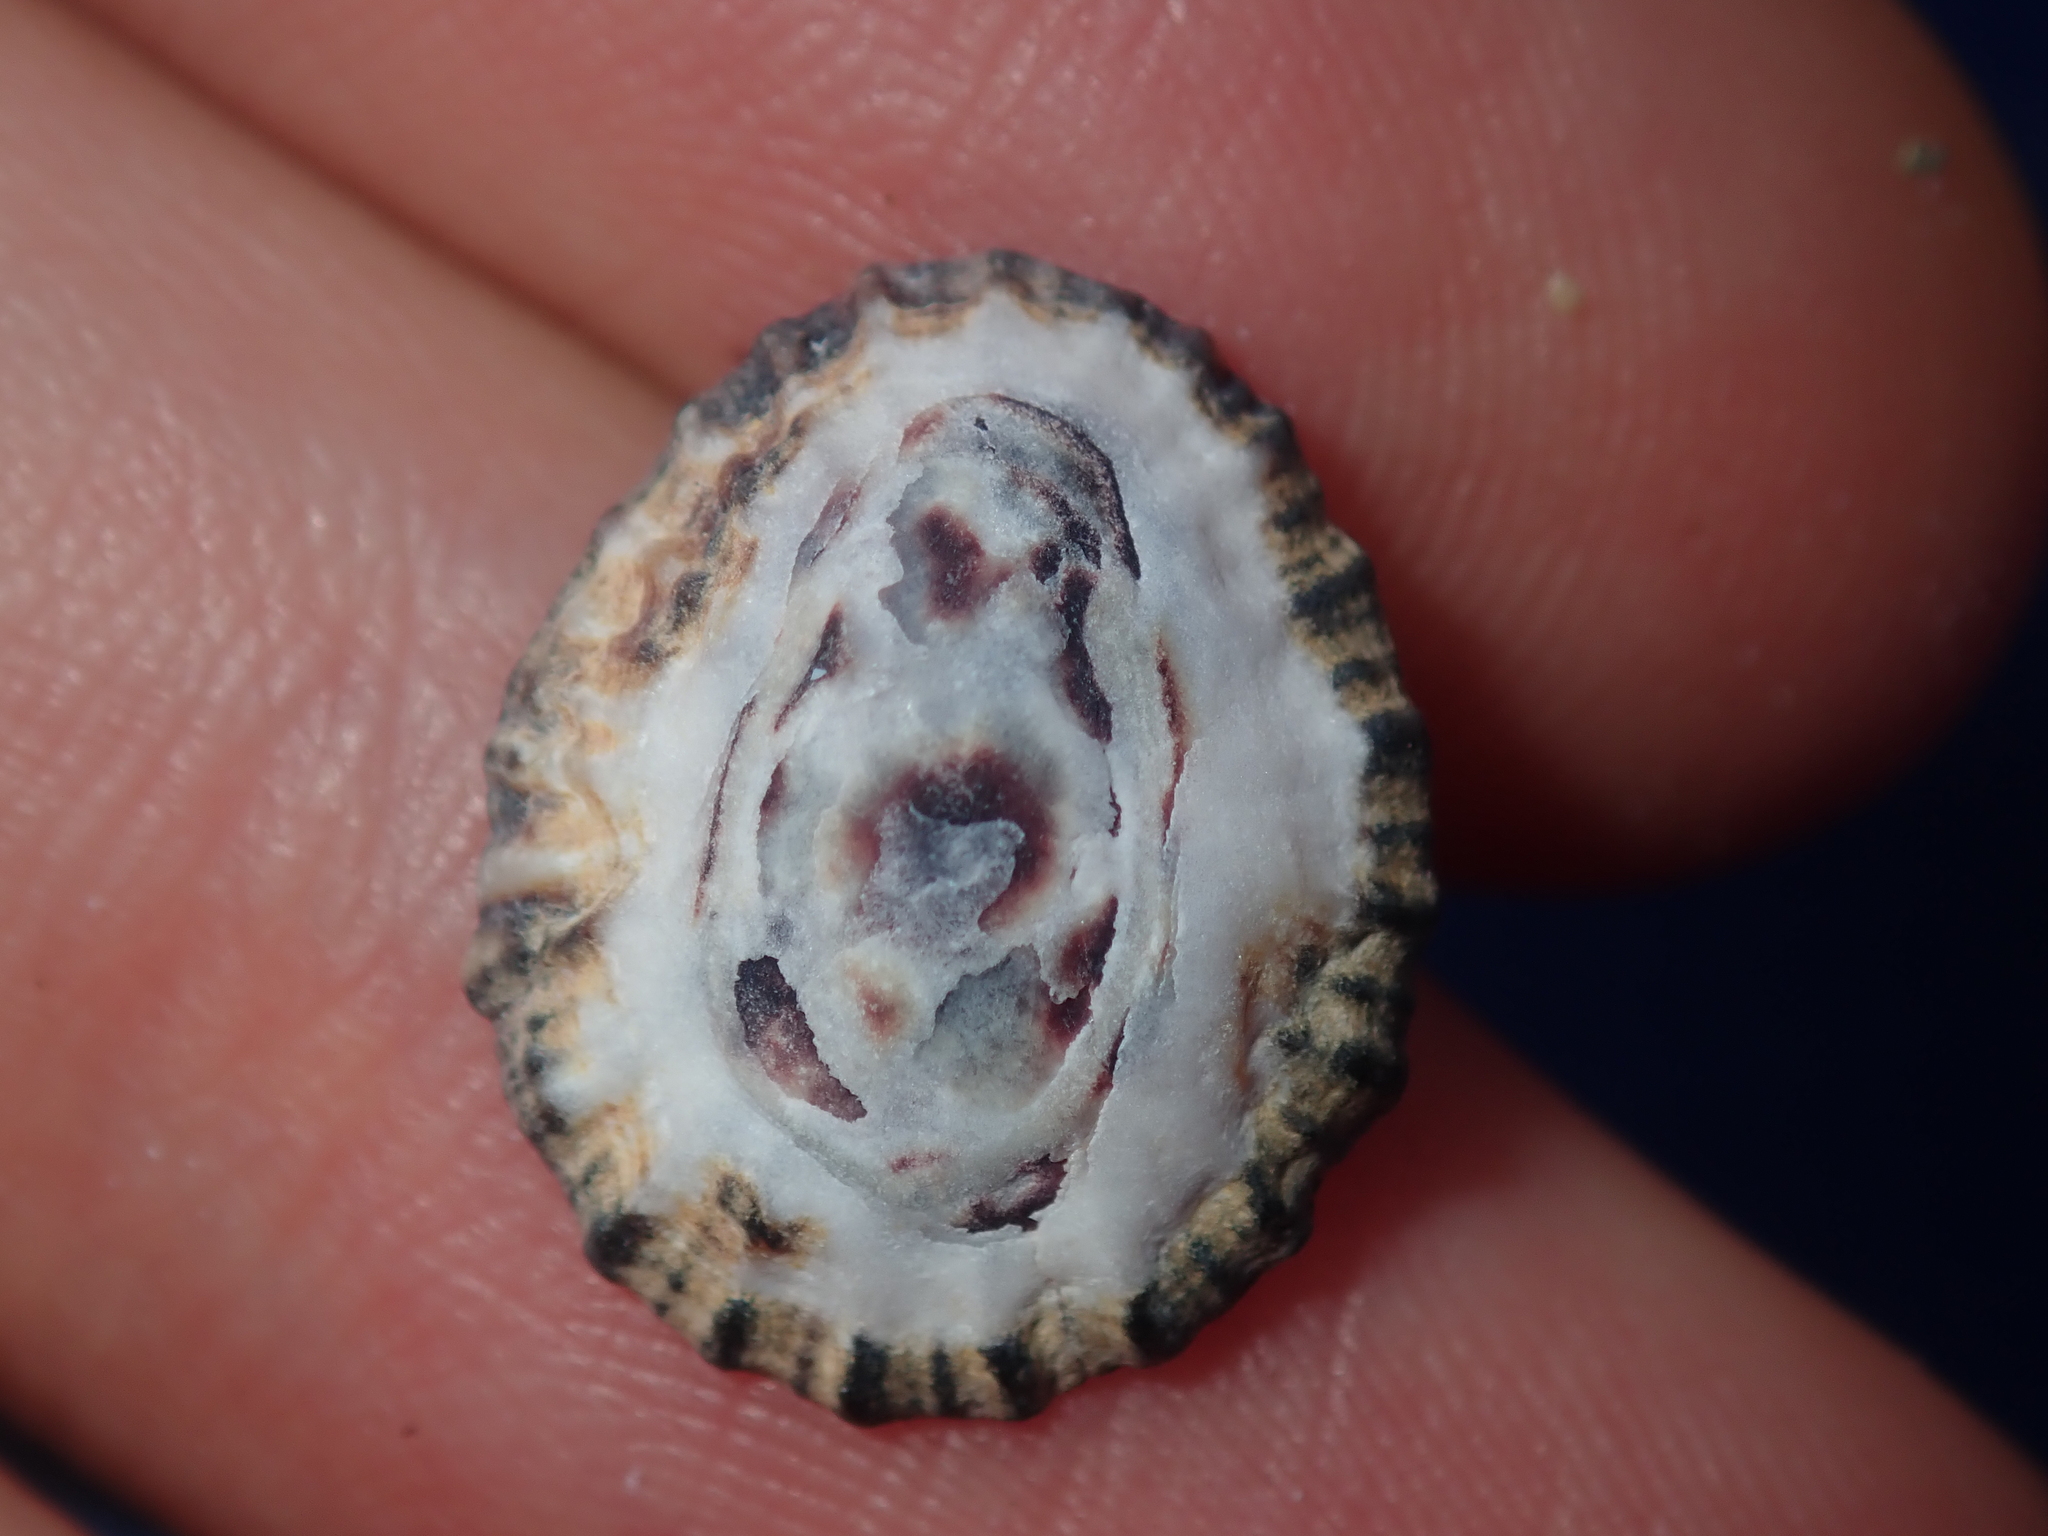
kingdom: Animalia
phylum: Mollusca
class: Gastropoda
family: Patellidae
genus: Scutellastra
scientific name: Scutellastra peronii
